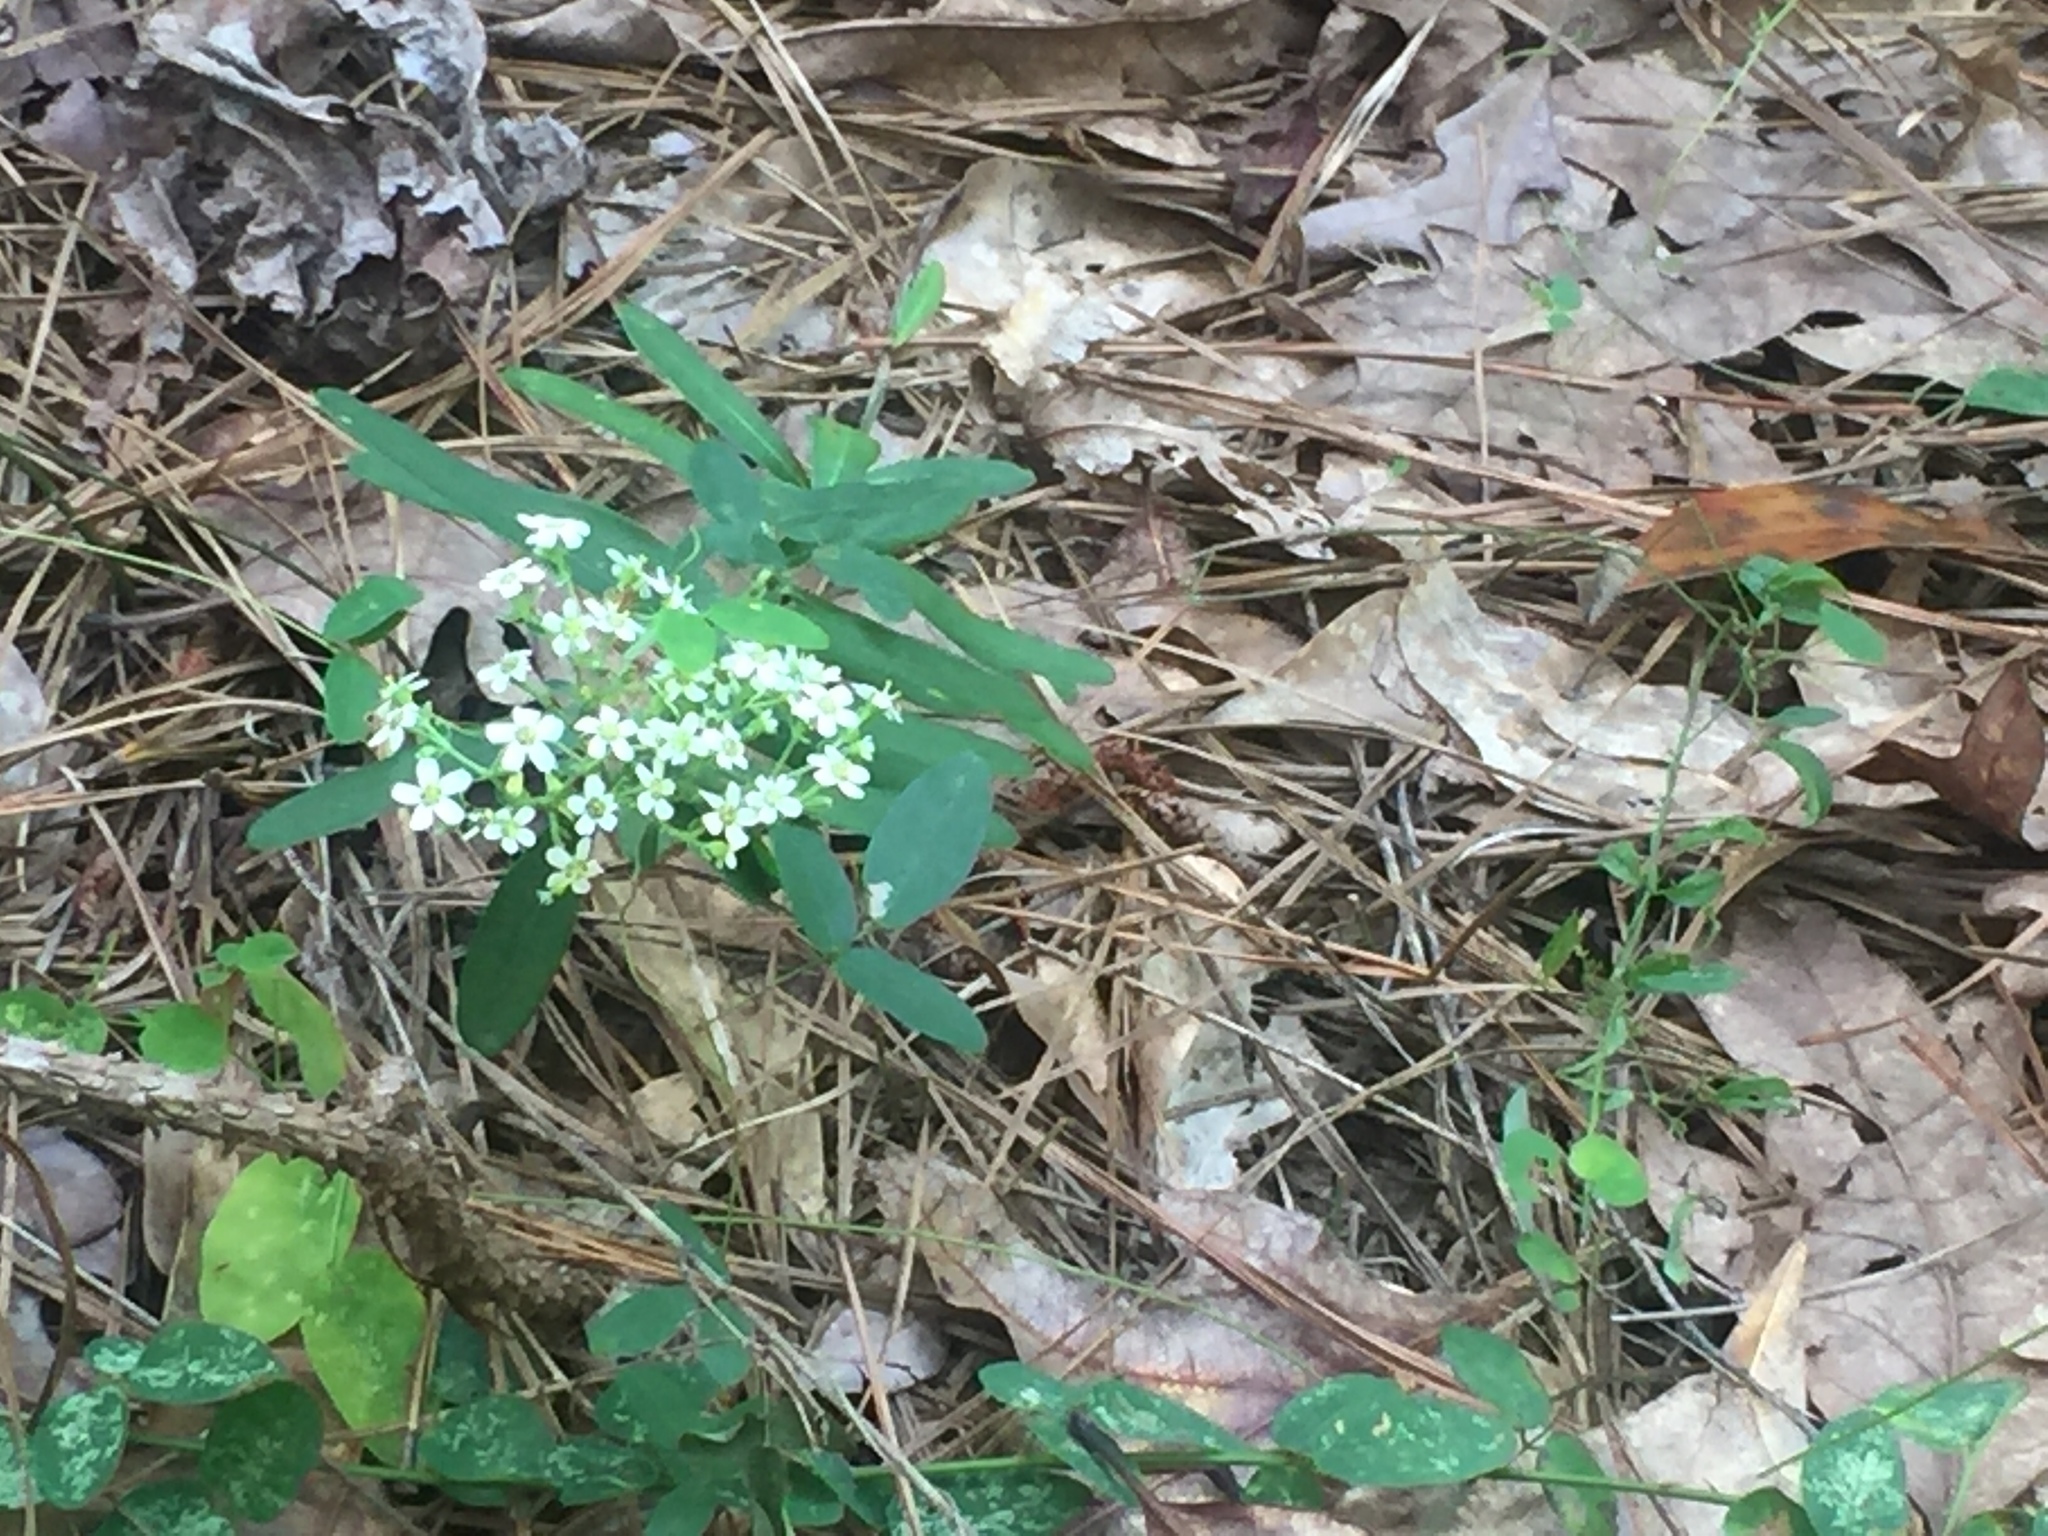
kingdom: Plantae
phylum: Tracheophyta
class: Magnoliopsida
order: Malpighiales
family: Euphorbiaceae
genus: Euphorbia
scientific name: Euphorbia corollata
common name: Flowering spurge
